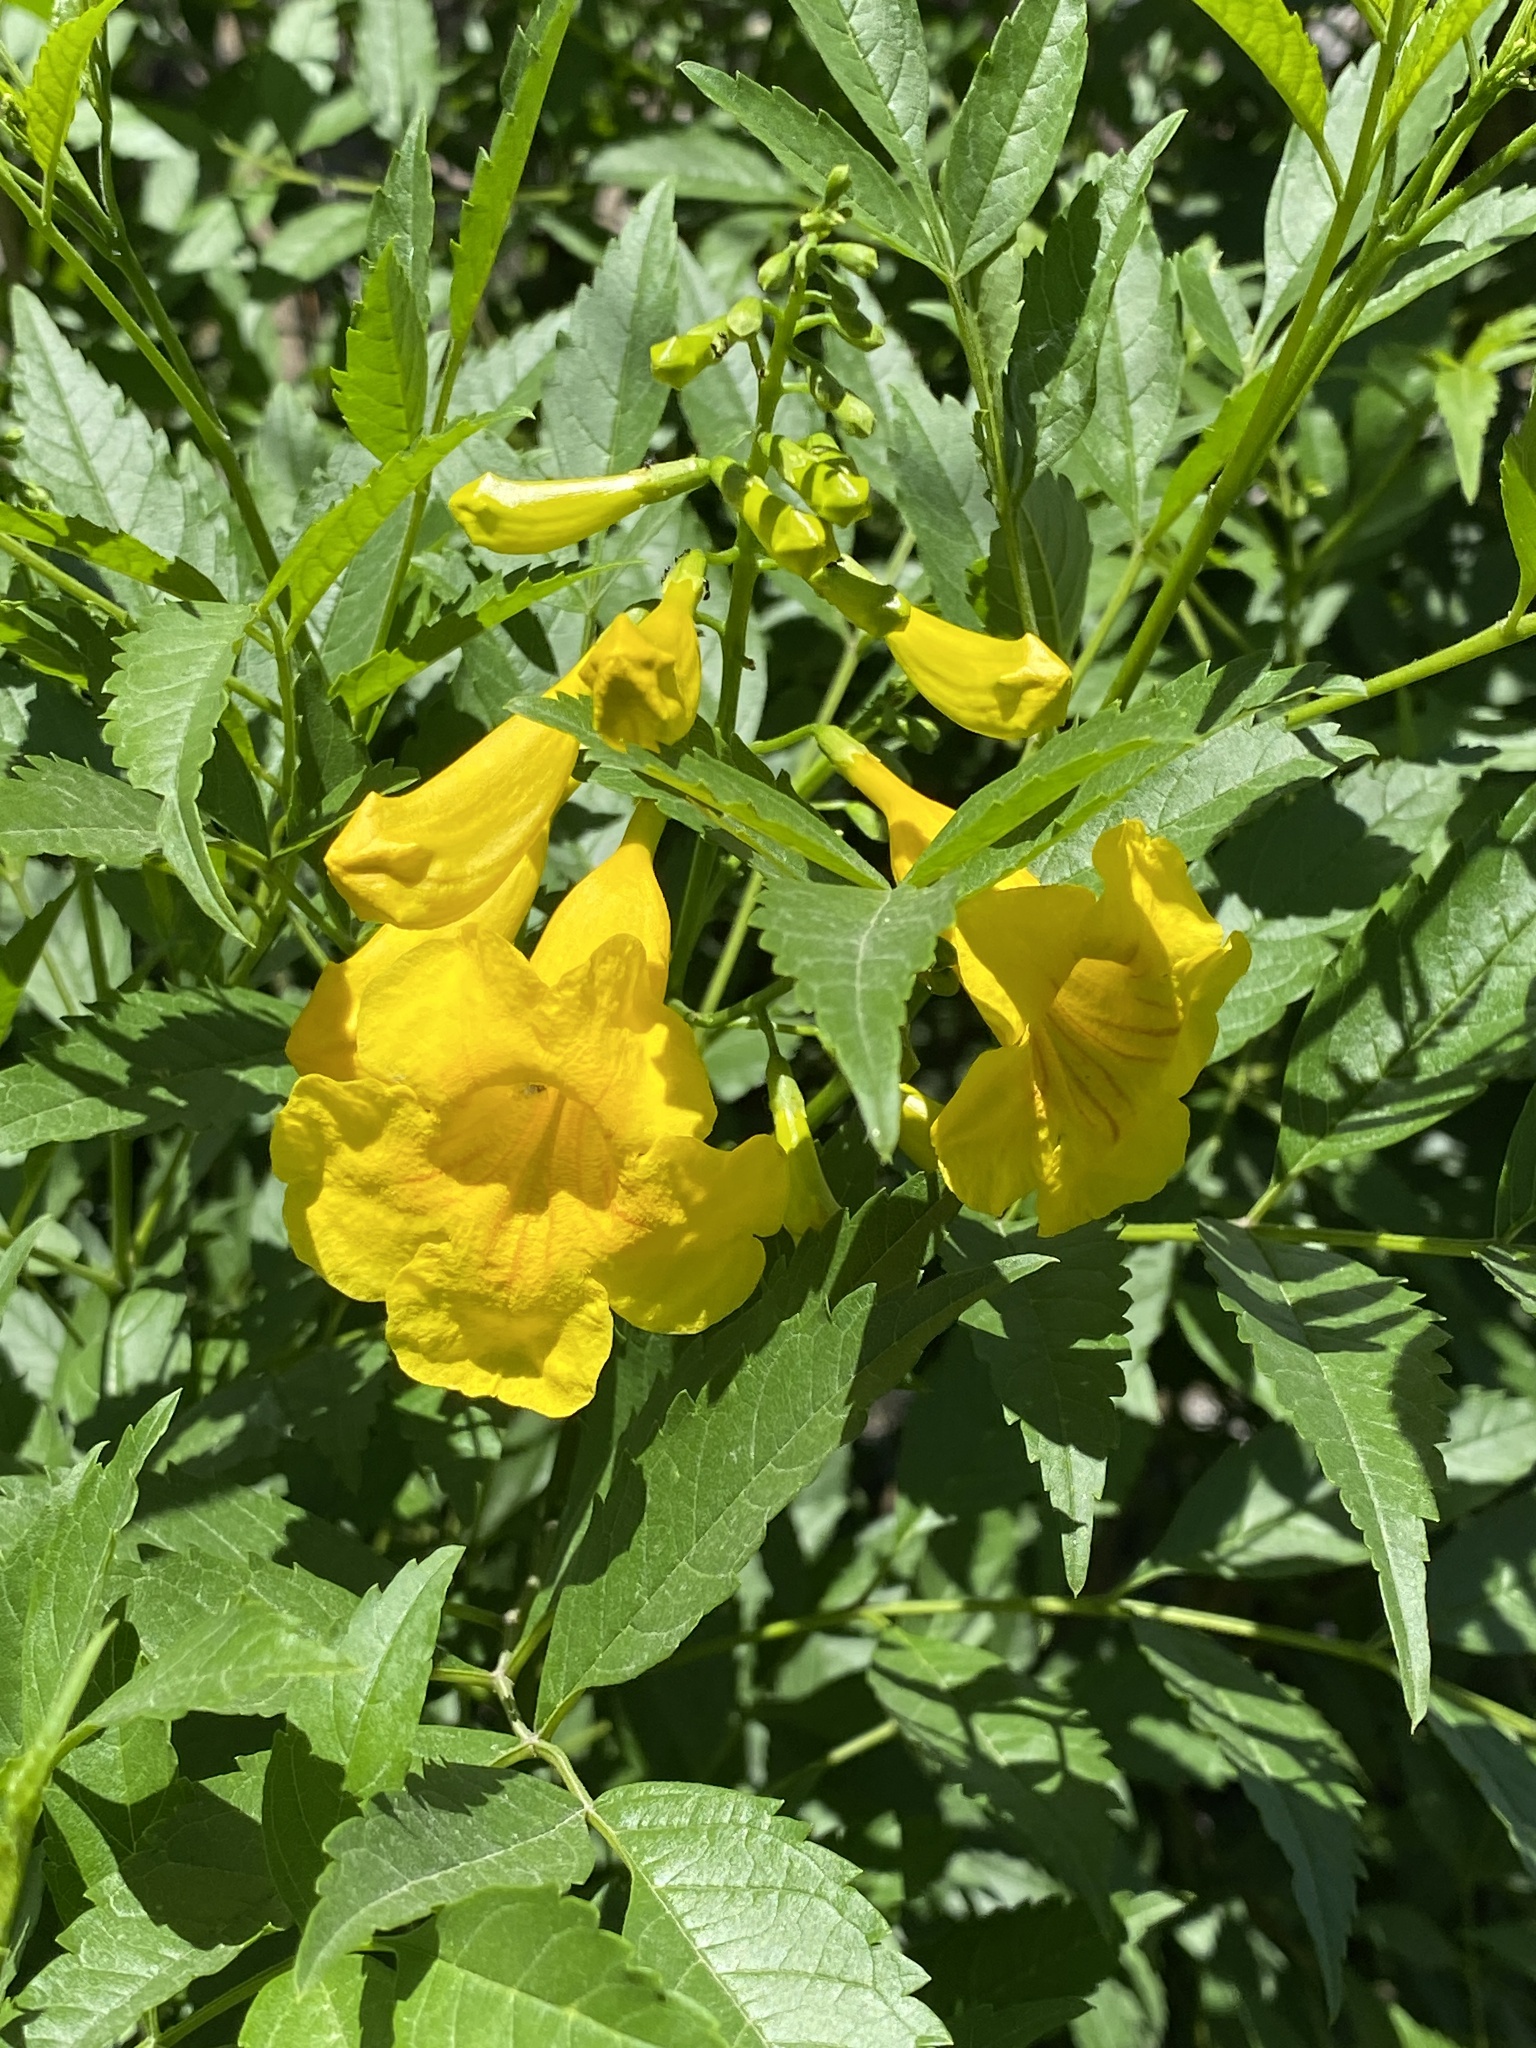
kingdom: Plantae
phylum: Tracheophyta
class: Magnoliopsida
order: Lamiales
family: Bignoniaceae
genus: Tecoma
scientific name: Tecoma stans
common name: Yellow trumpetbush
